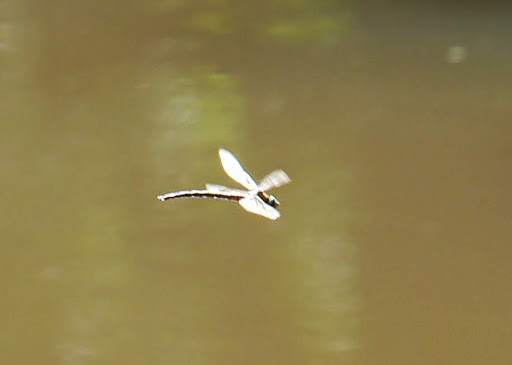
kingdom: Animalia
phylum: Arthropoda
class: Insecta
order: Odonata
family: Aeshnidae
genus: Nasiaeschna
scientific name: Nasiaeschna pentacantha
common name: Cyrano darner
